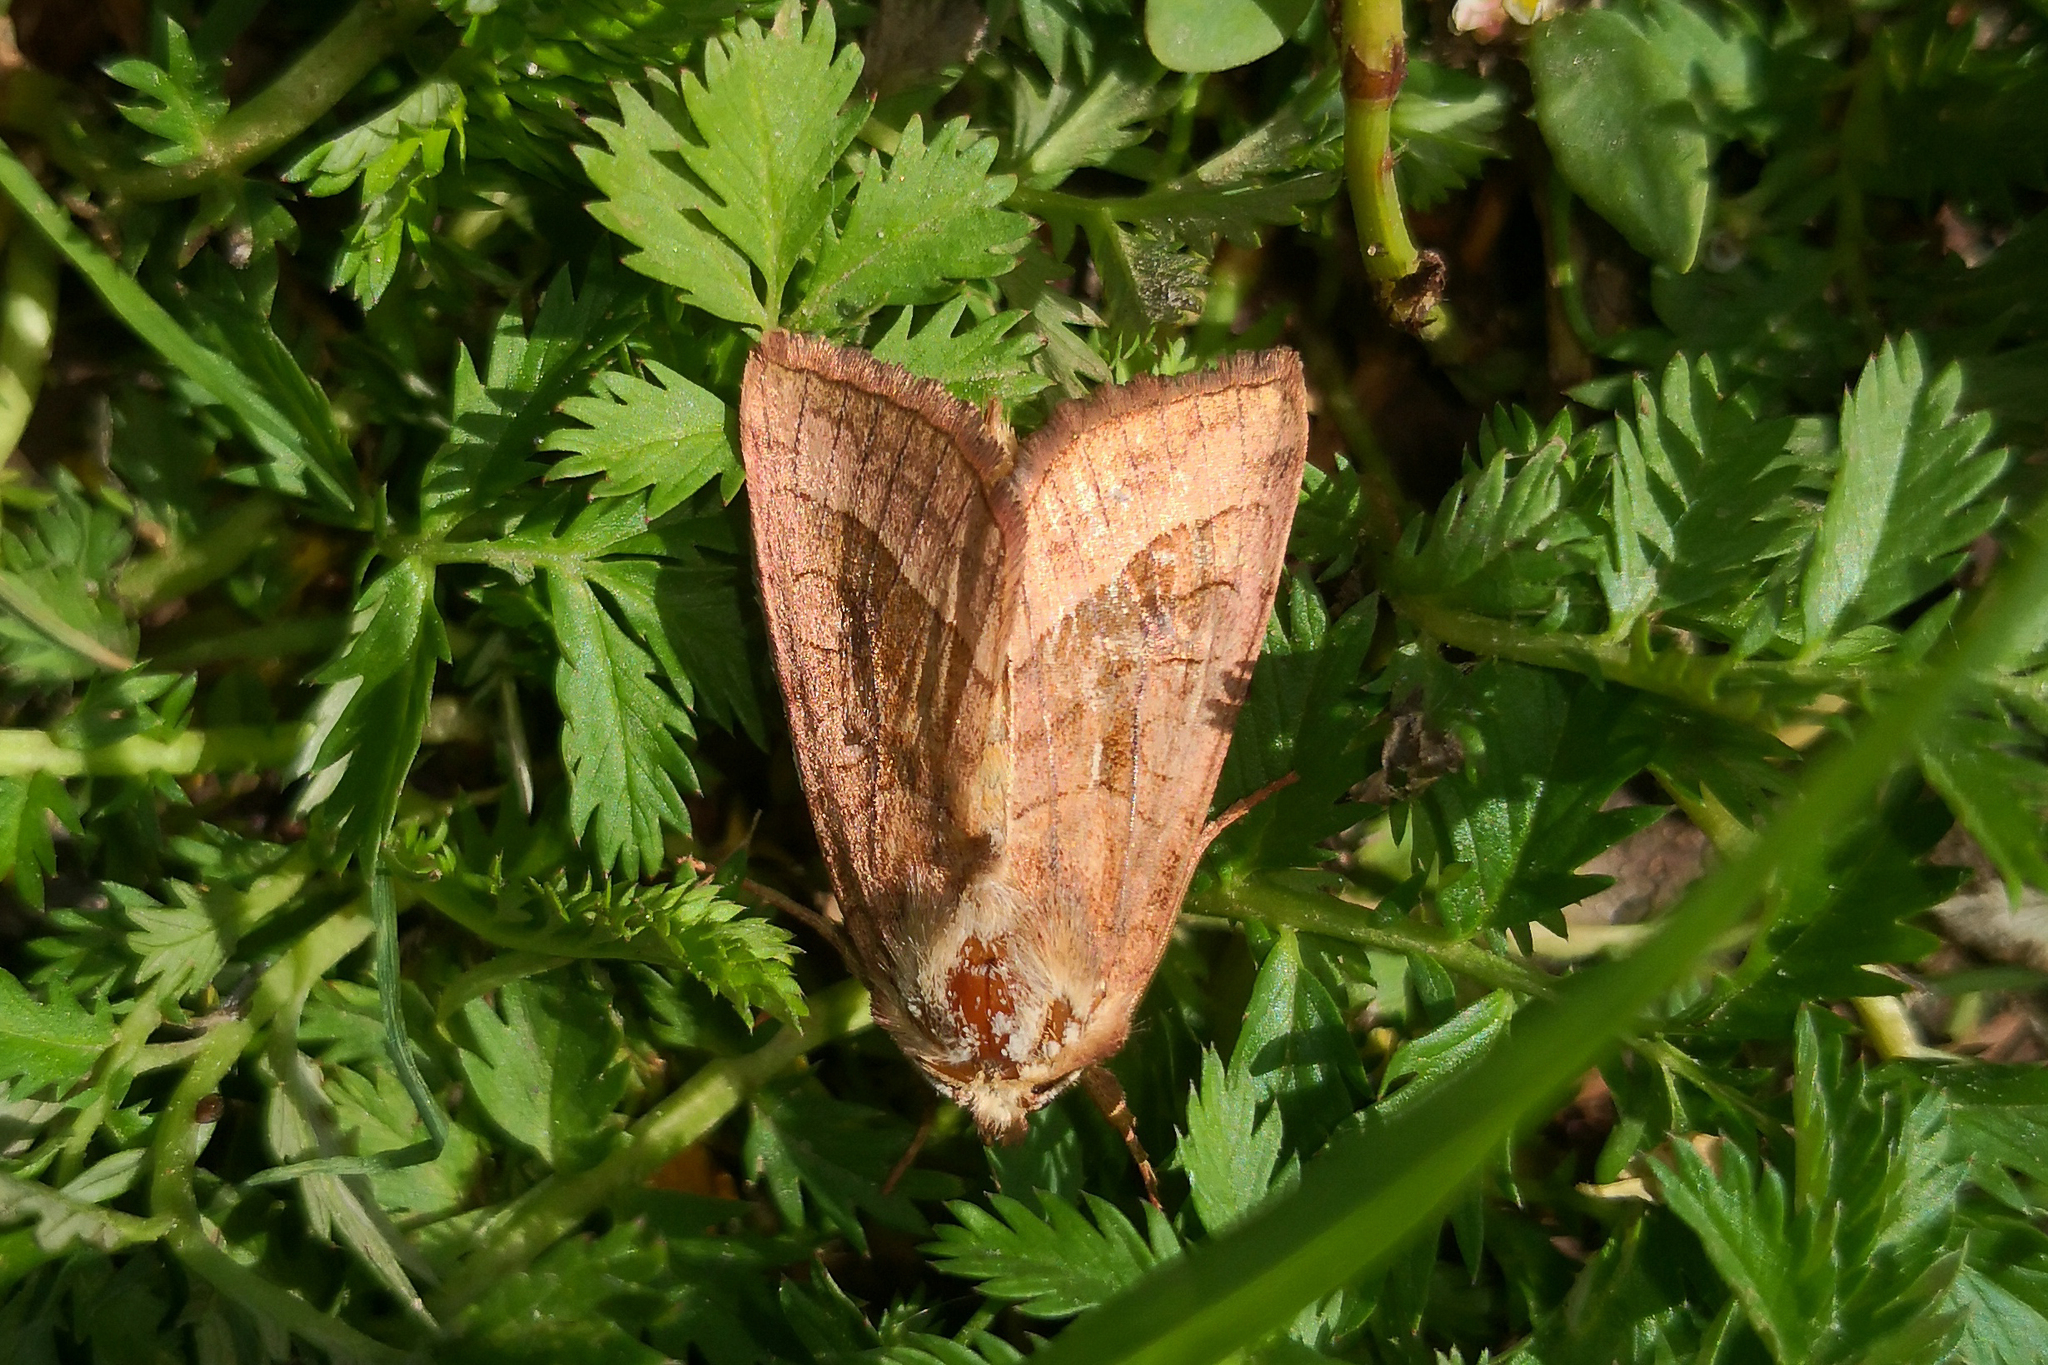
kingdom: Animalia
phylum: Arthropoda
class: Insecta
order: Lepidoptera
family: Noctuidae
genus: Hydraecia
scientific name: Hydraecia micacea
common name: Rosy rustic
